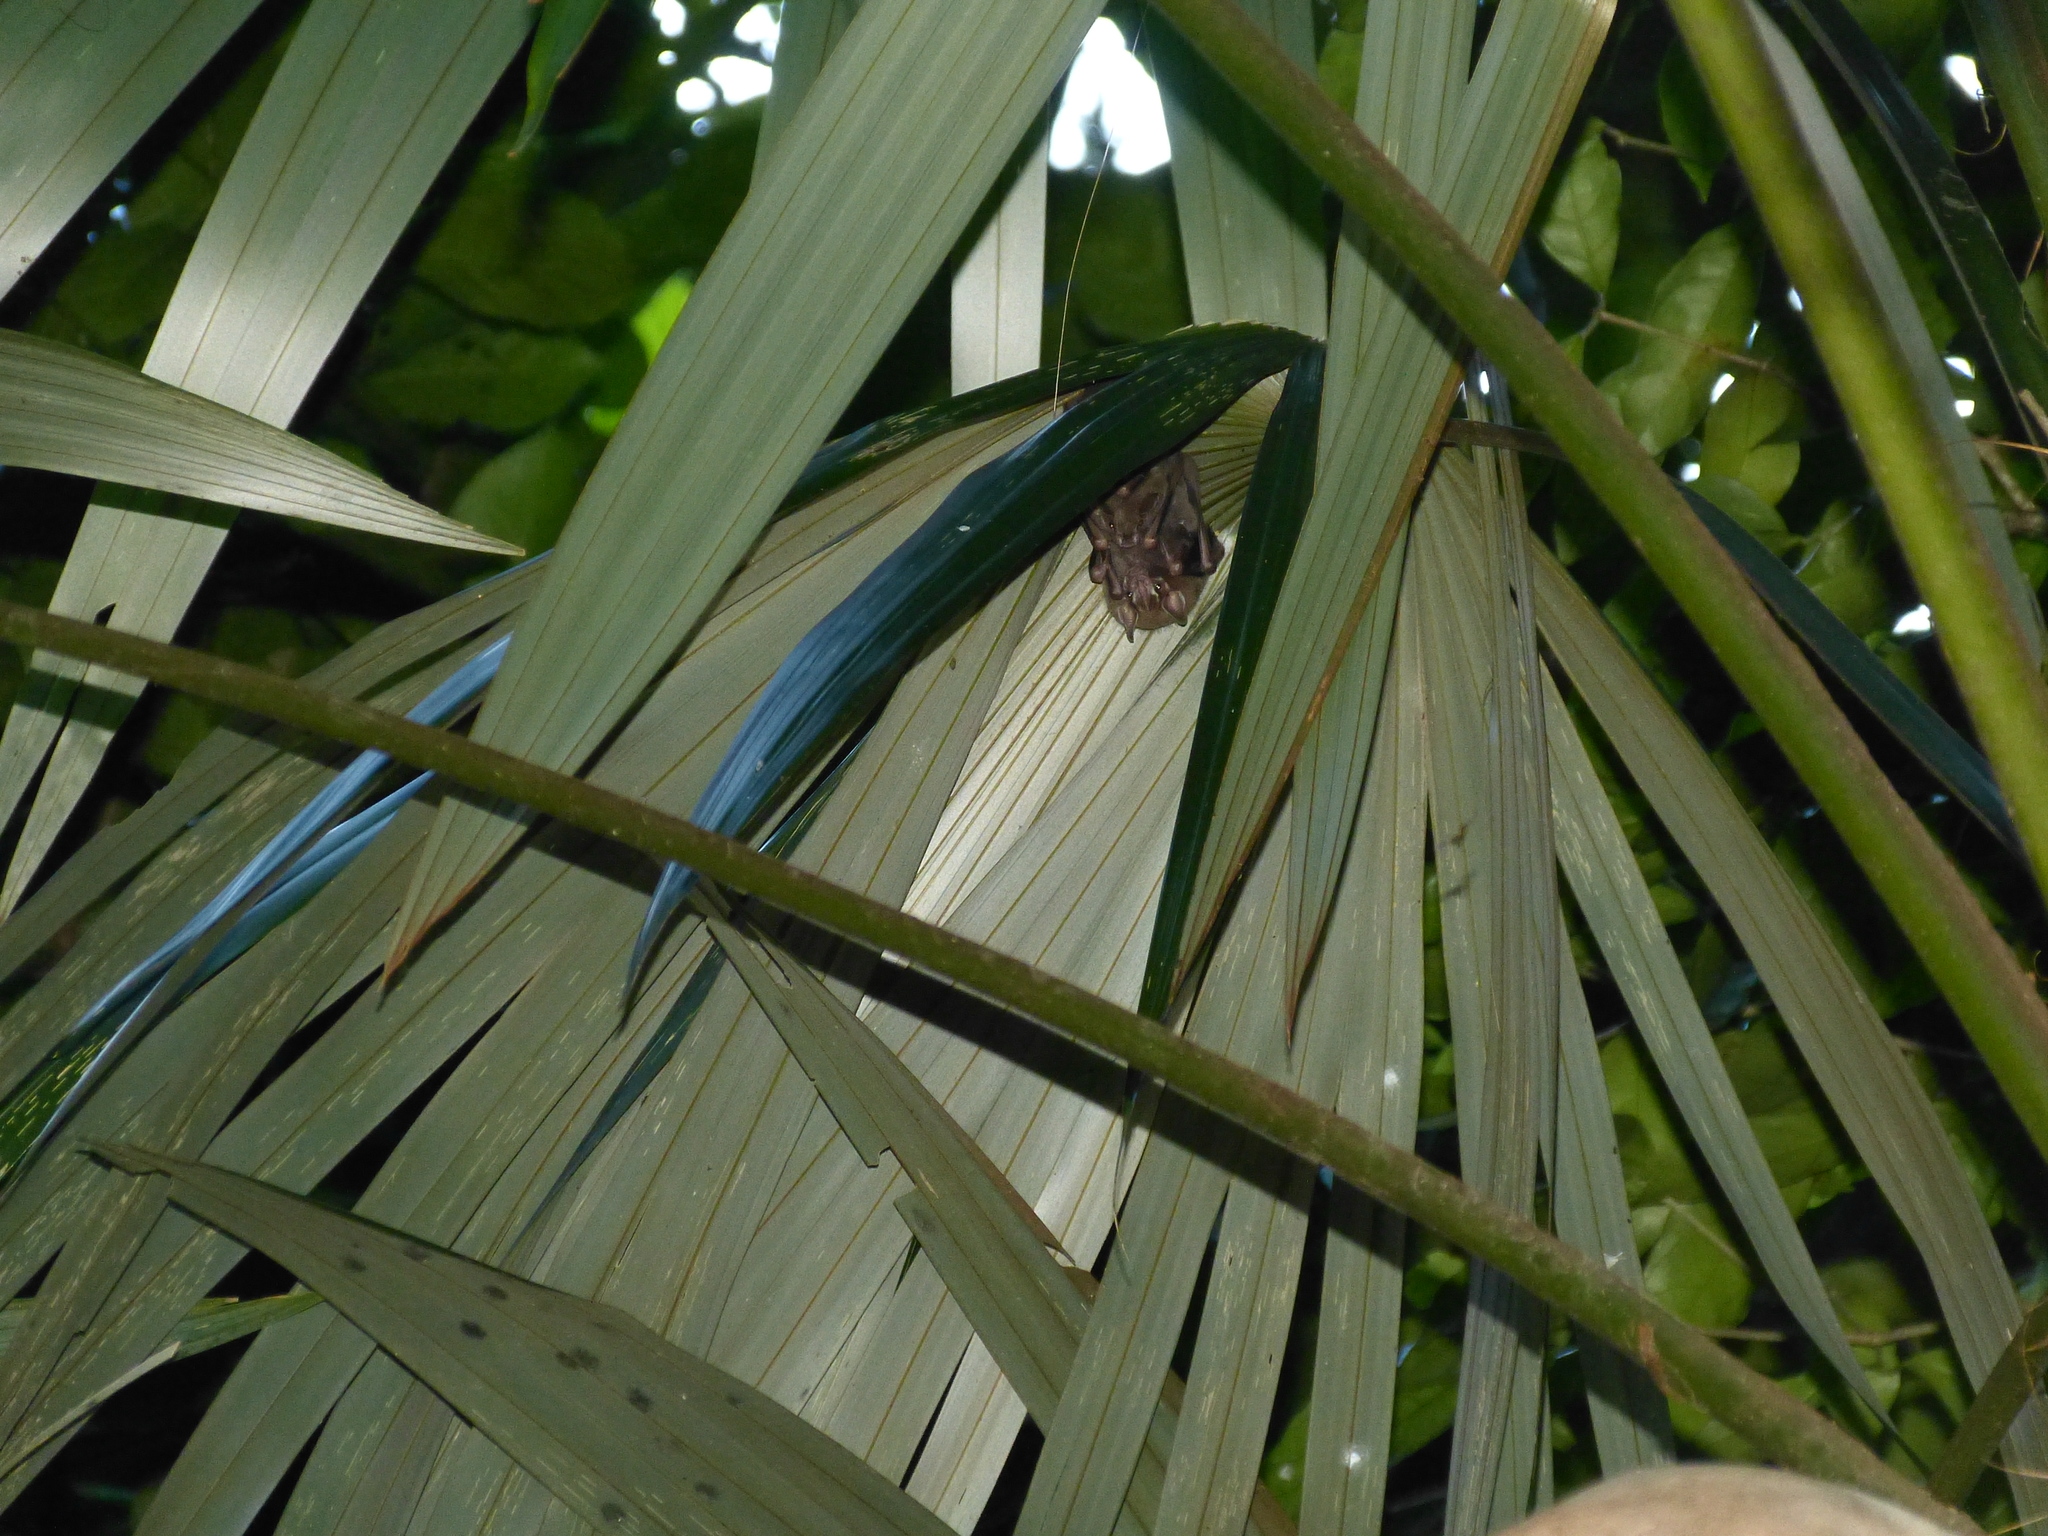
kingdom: Animalia
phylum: Chordata
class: Mammalia
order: Chiroptera
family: Phyllostomidae
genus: Artibeus
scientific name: Artibeus watsoni
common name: Thomas's fruit-eating bat
